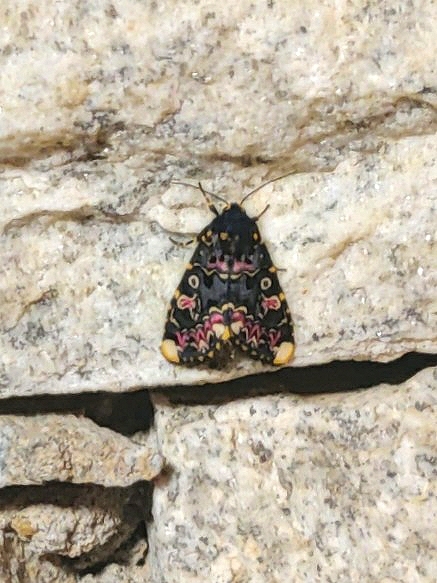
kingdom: Animalia
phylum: Arthropoda
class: Insecta
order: Lepidoptera
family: Noctuidae
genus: Polytela
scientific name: Polytela gloriosae
